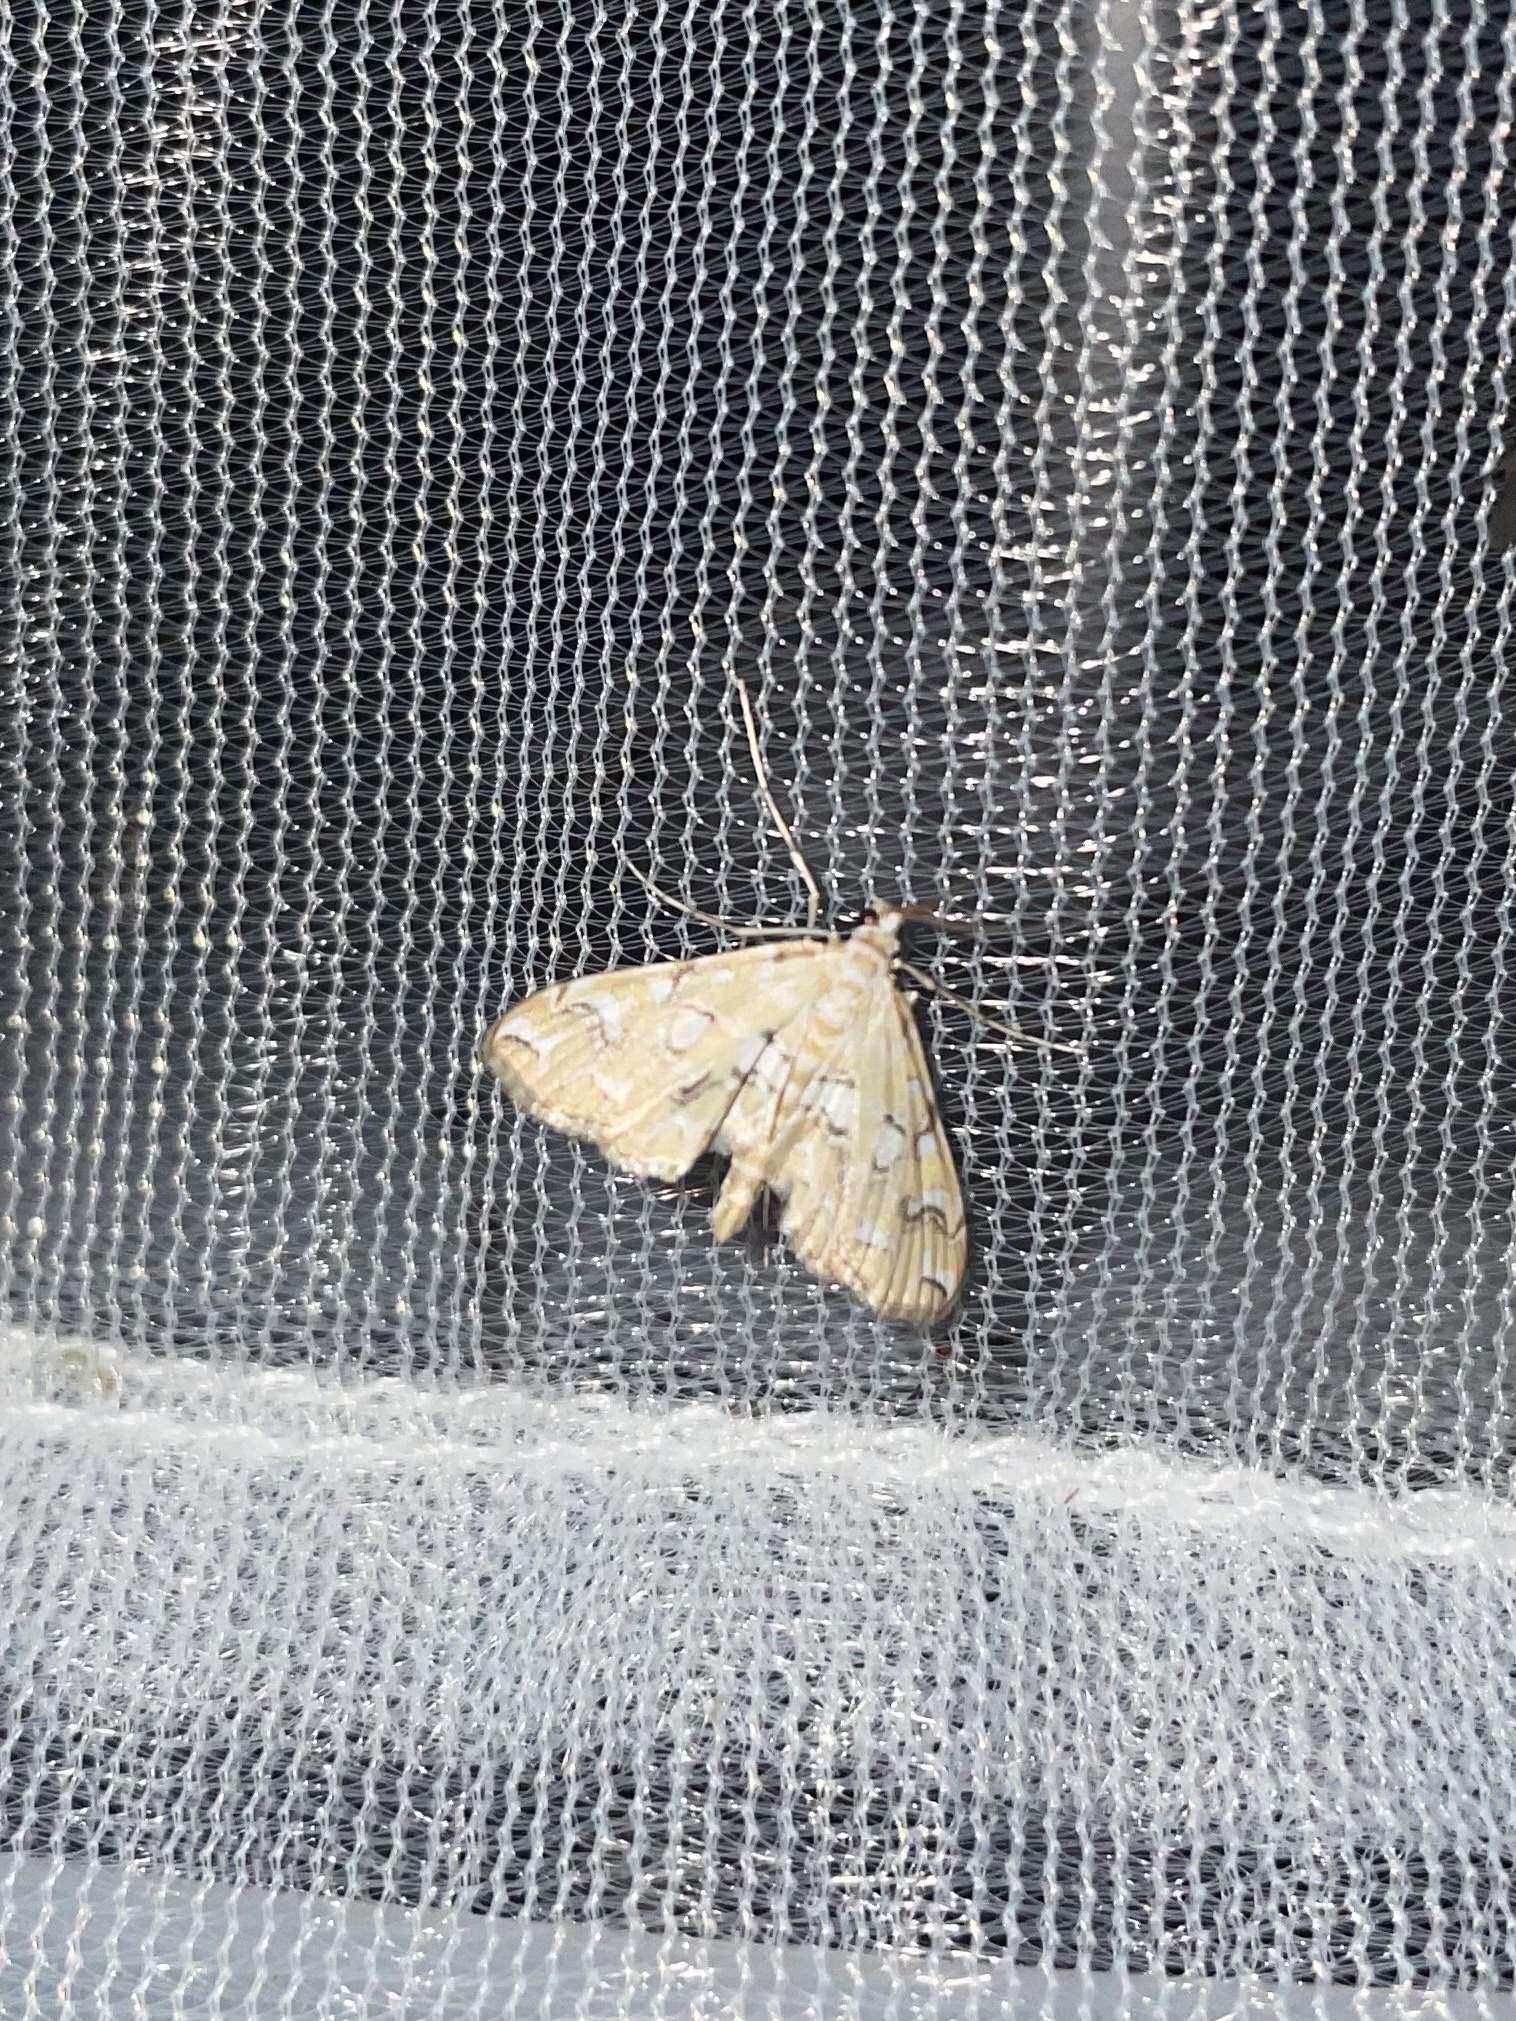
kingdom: Animalia
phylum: Arthropoda
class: Insecta
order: Lepidoptera
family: Crambidae
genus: Elophila
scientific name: Elophila icciusalis
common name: Pondside pyralid moth
